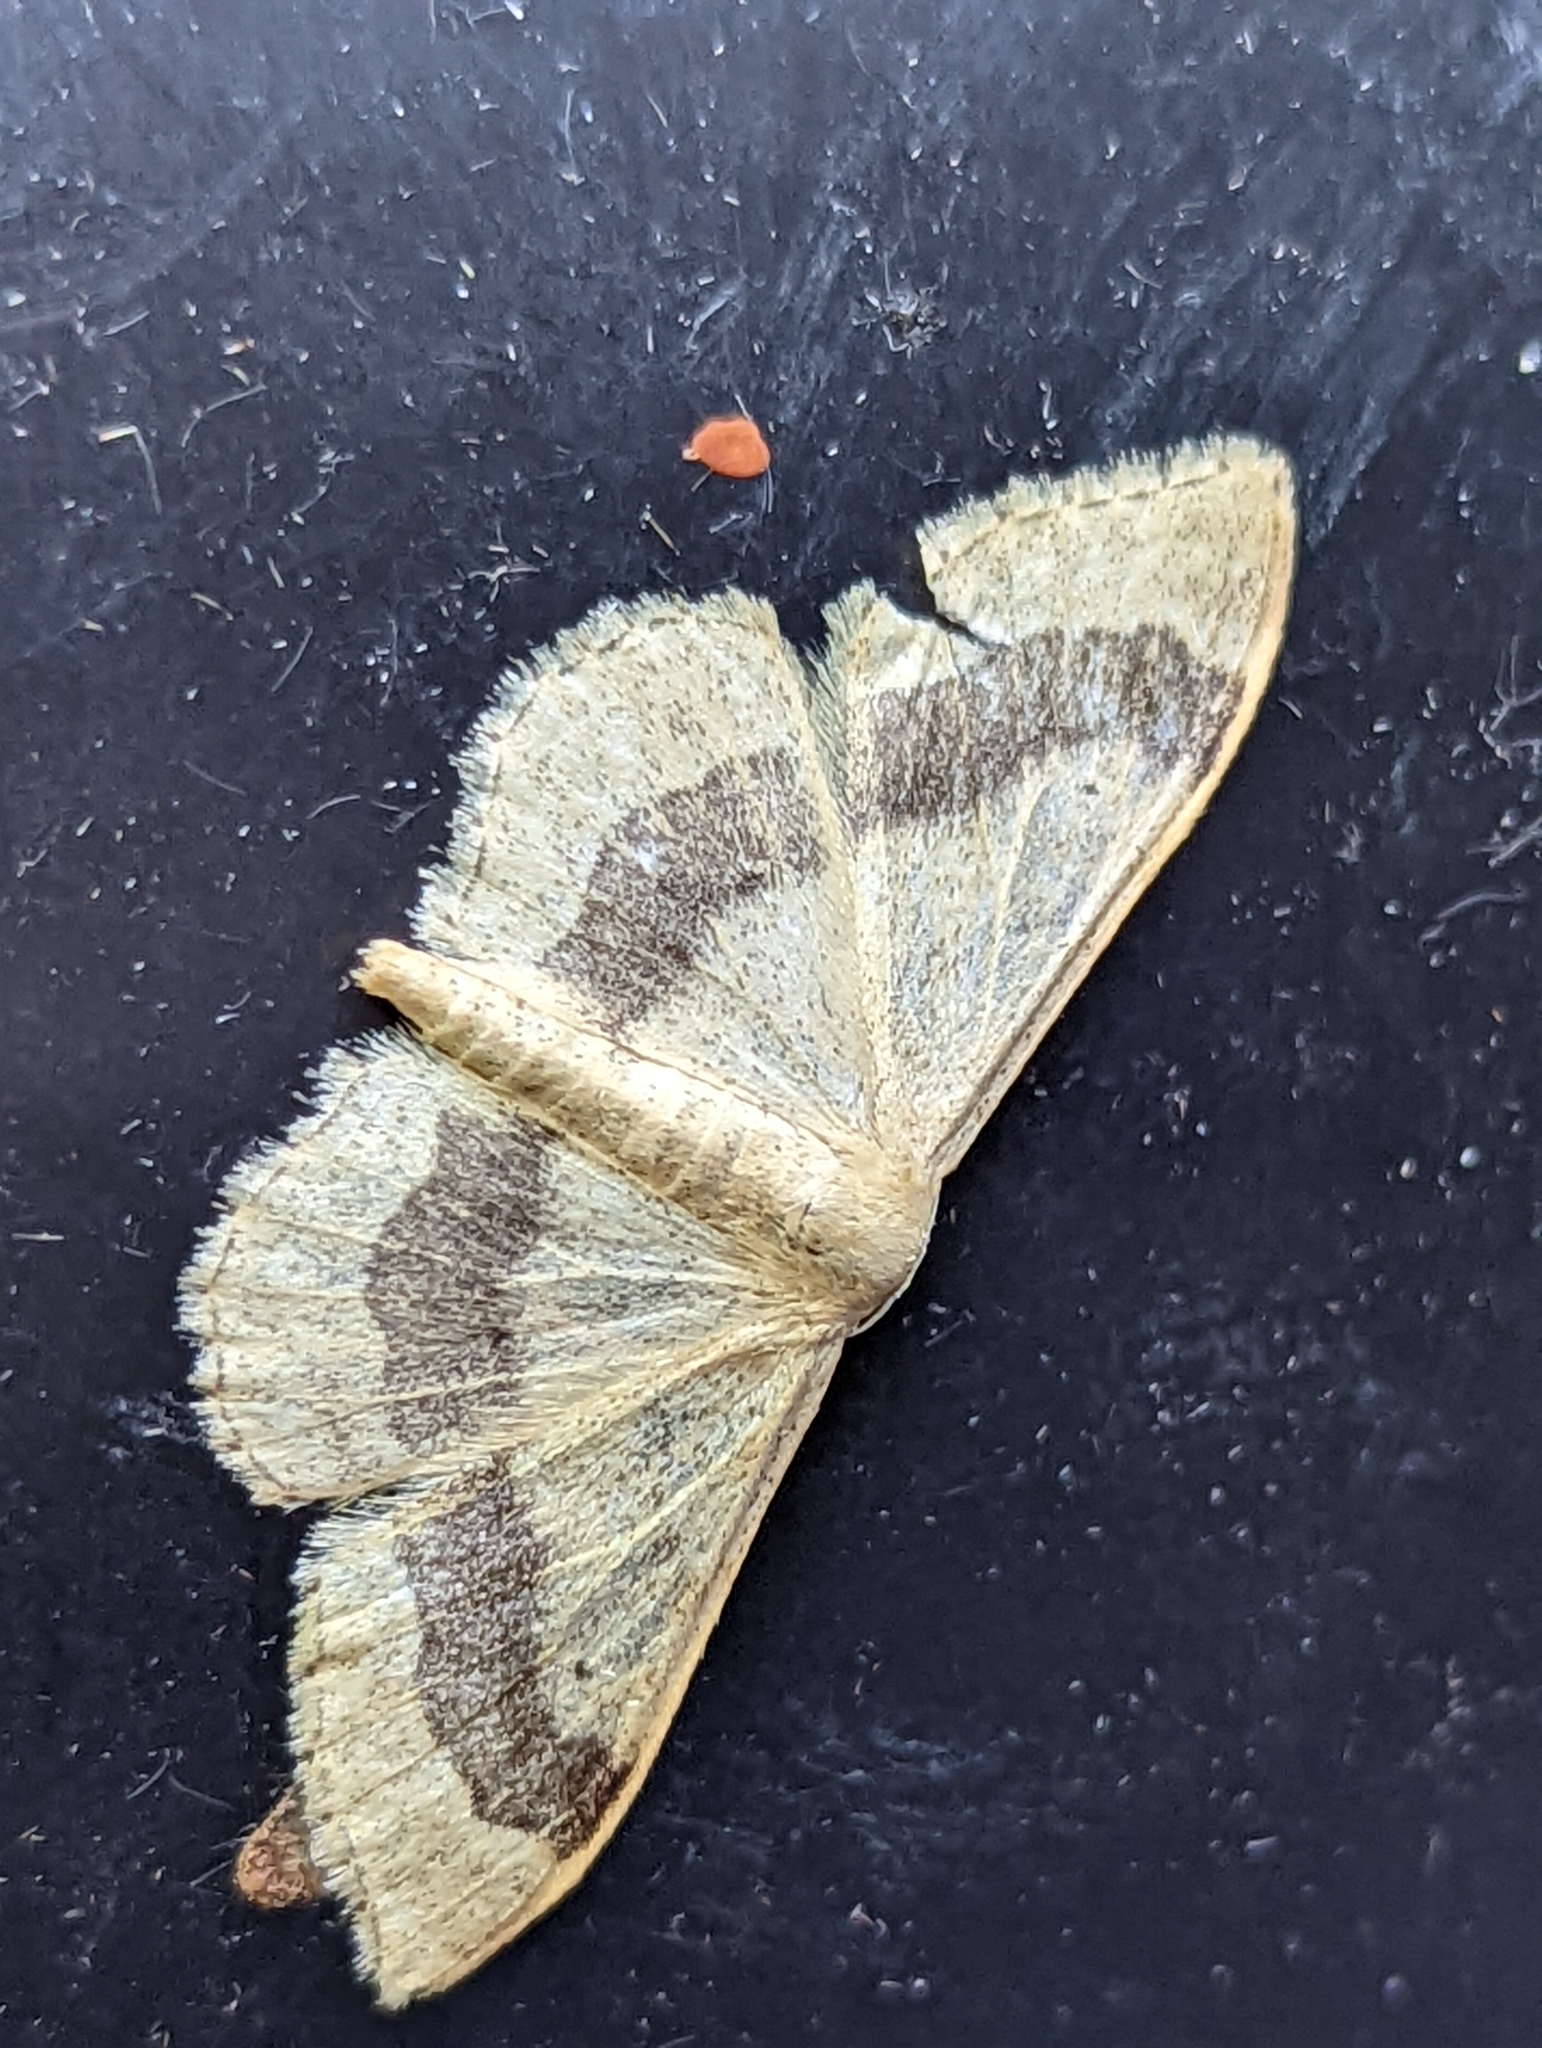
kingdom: Animalia
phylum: Arthropoda
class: Insecta
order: Lepidoptera
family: Geometridae
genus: Idaea
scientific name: Idaea aversata
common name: Riband wave
